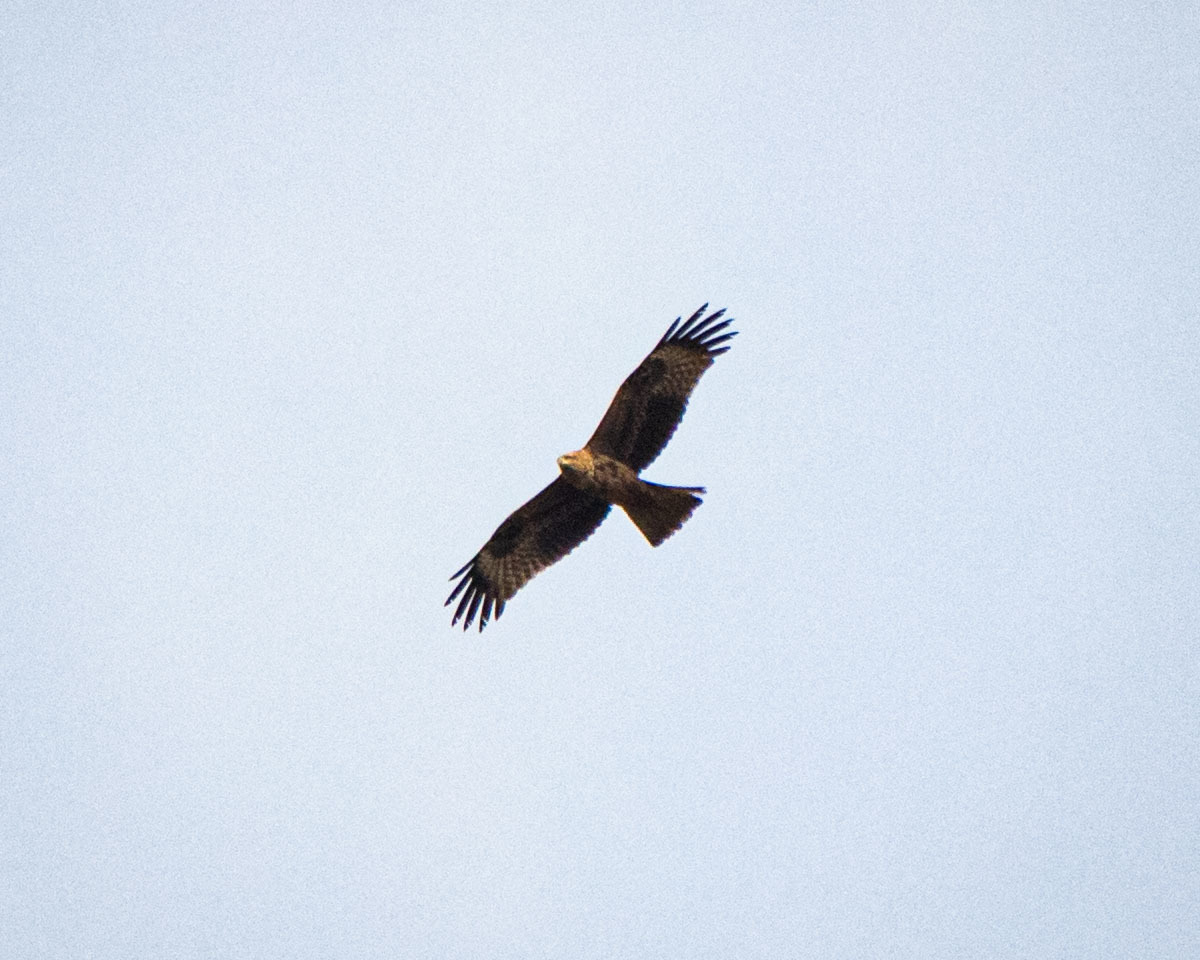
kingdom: Animalia
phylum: Chordata
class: Aves
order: Accipitriformes
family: Accipitridae
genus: Milvus
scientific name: Milvus migrans
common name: Black kite
